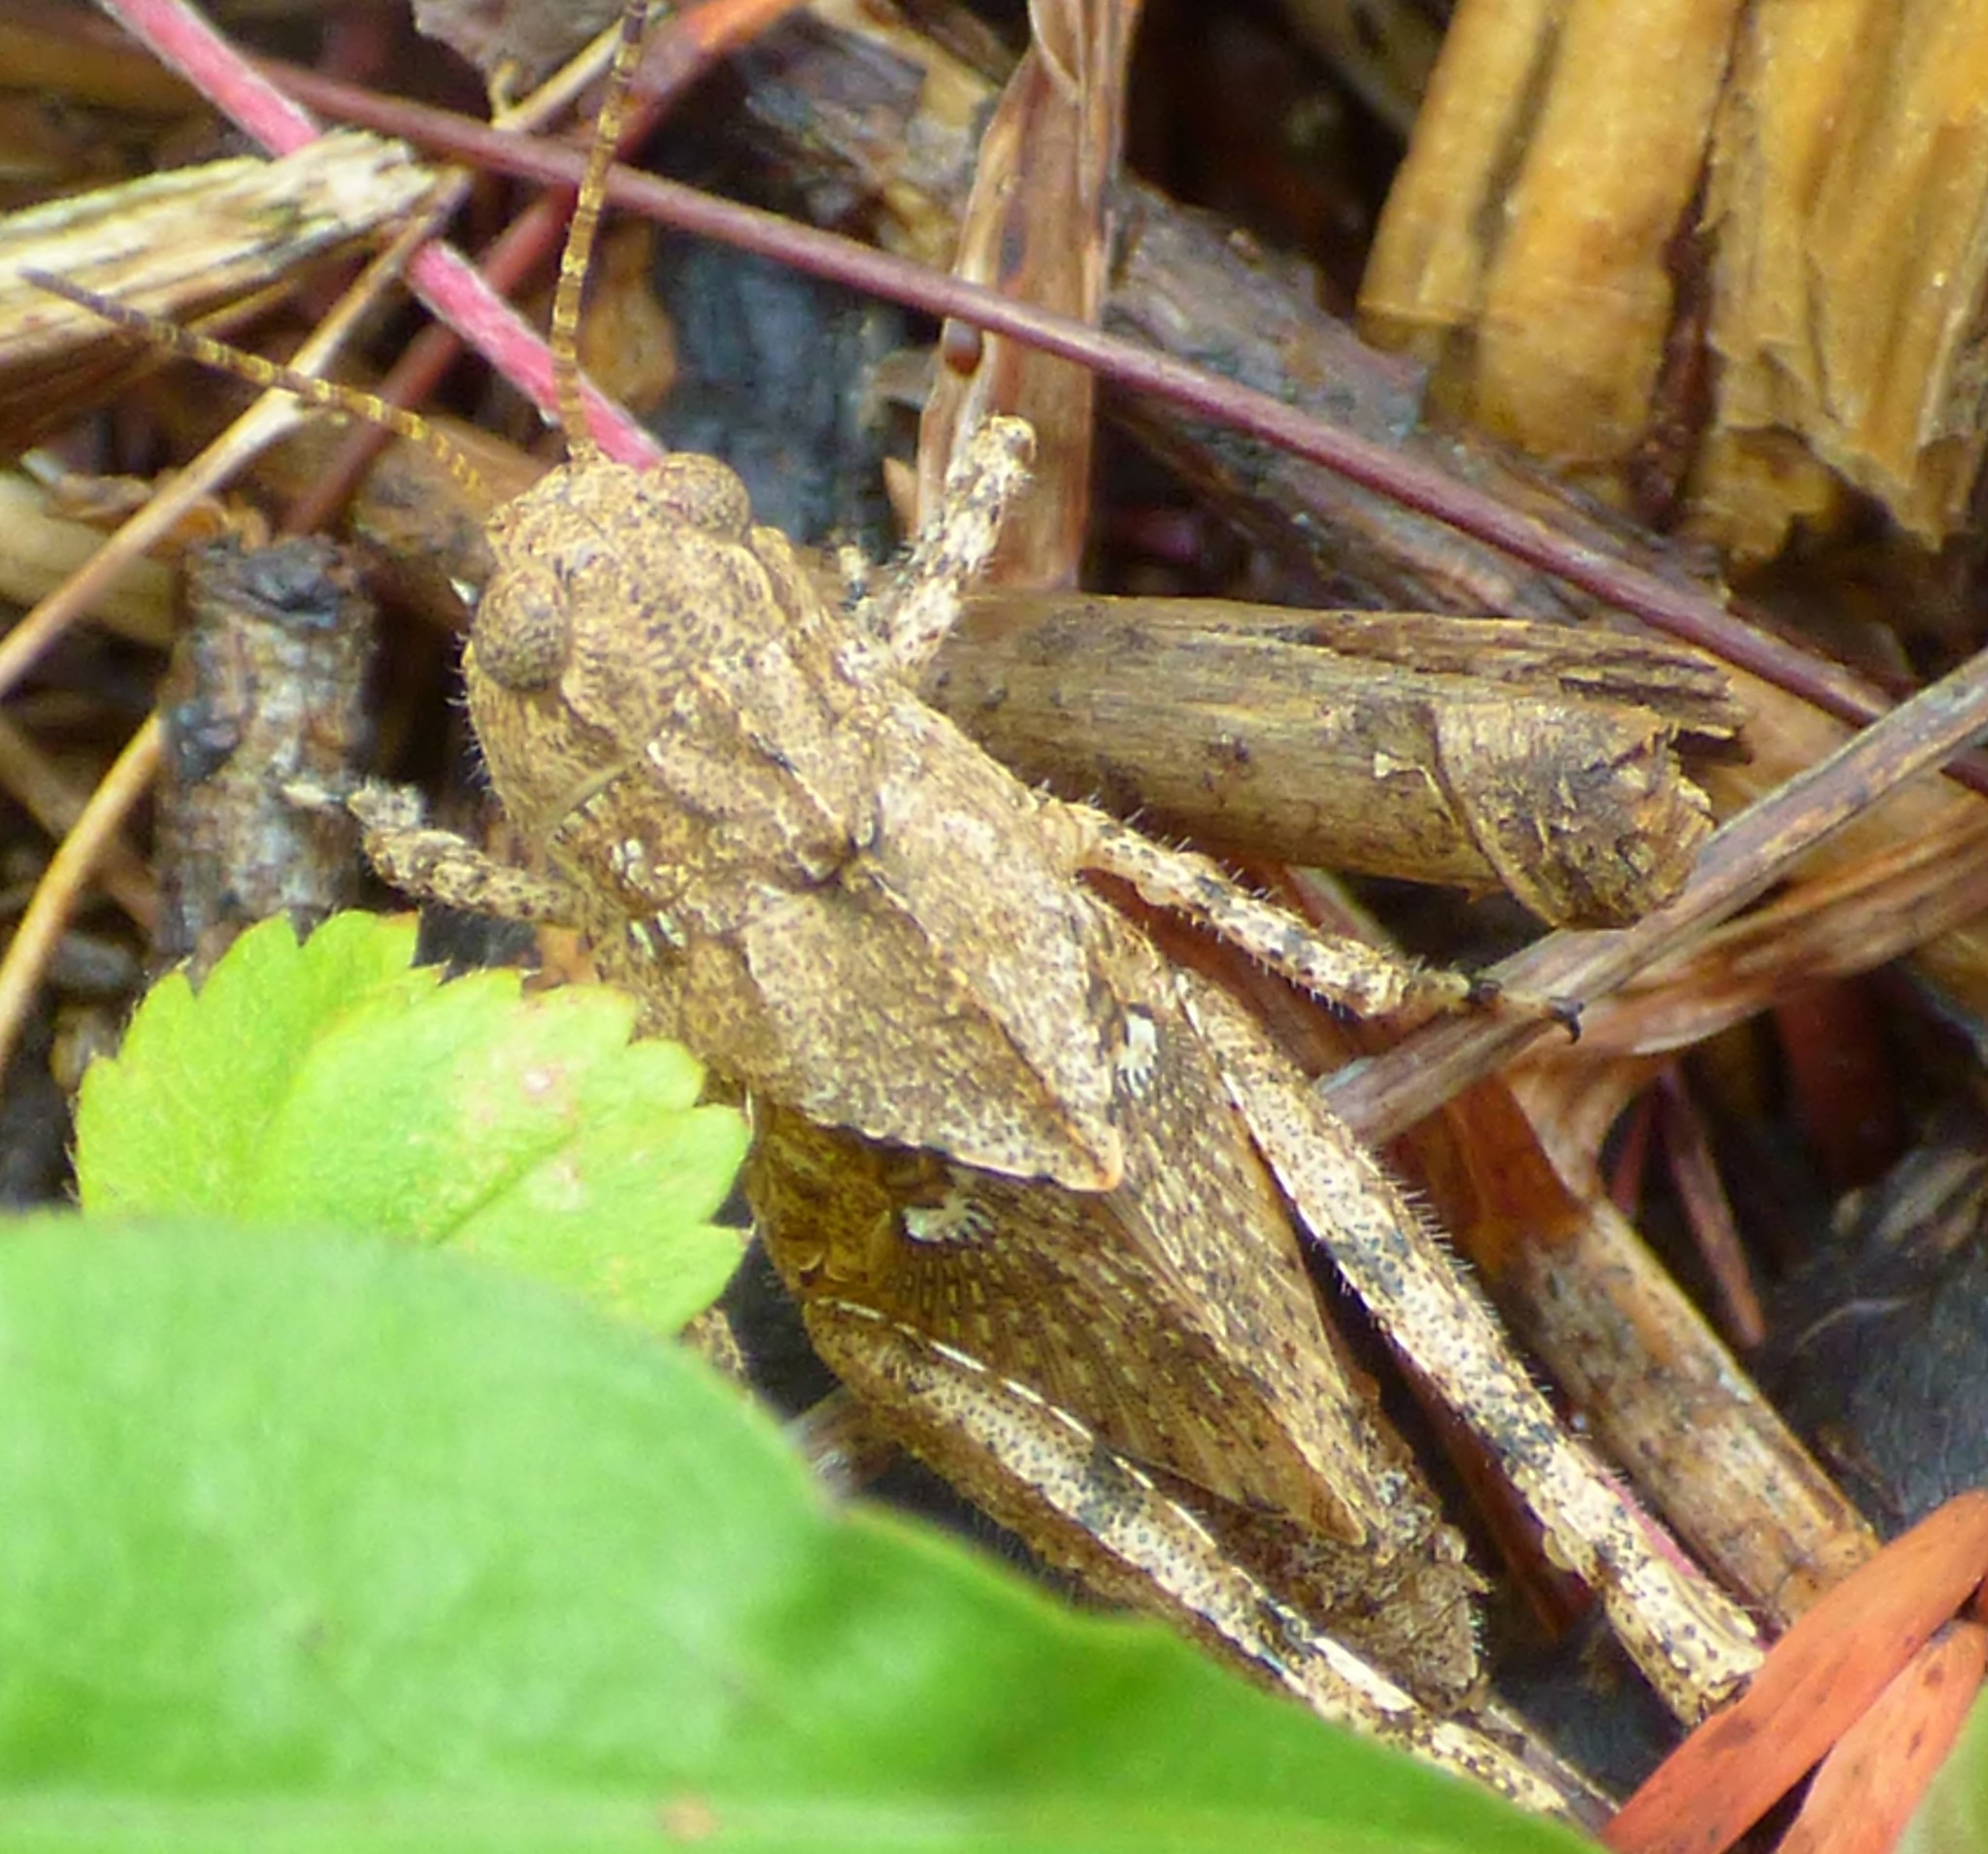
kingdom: Animalia
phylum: Arthropoda
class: Insecta
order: Orthoptera
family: Acrididae
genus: Dissosteira
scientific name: Dissosteira carolina
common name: Carolina grasshopper
